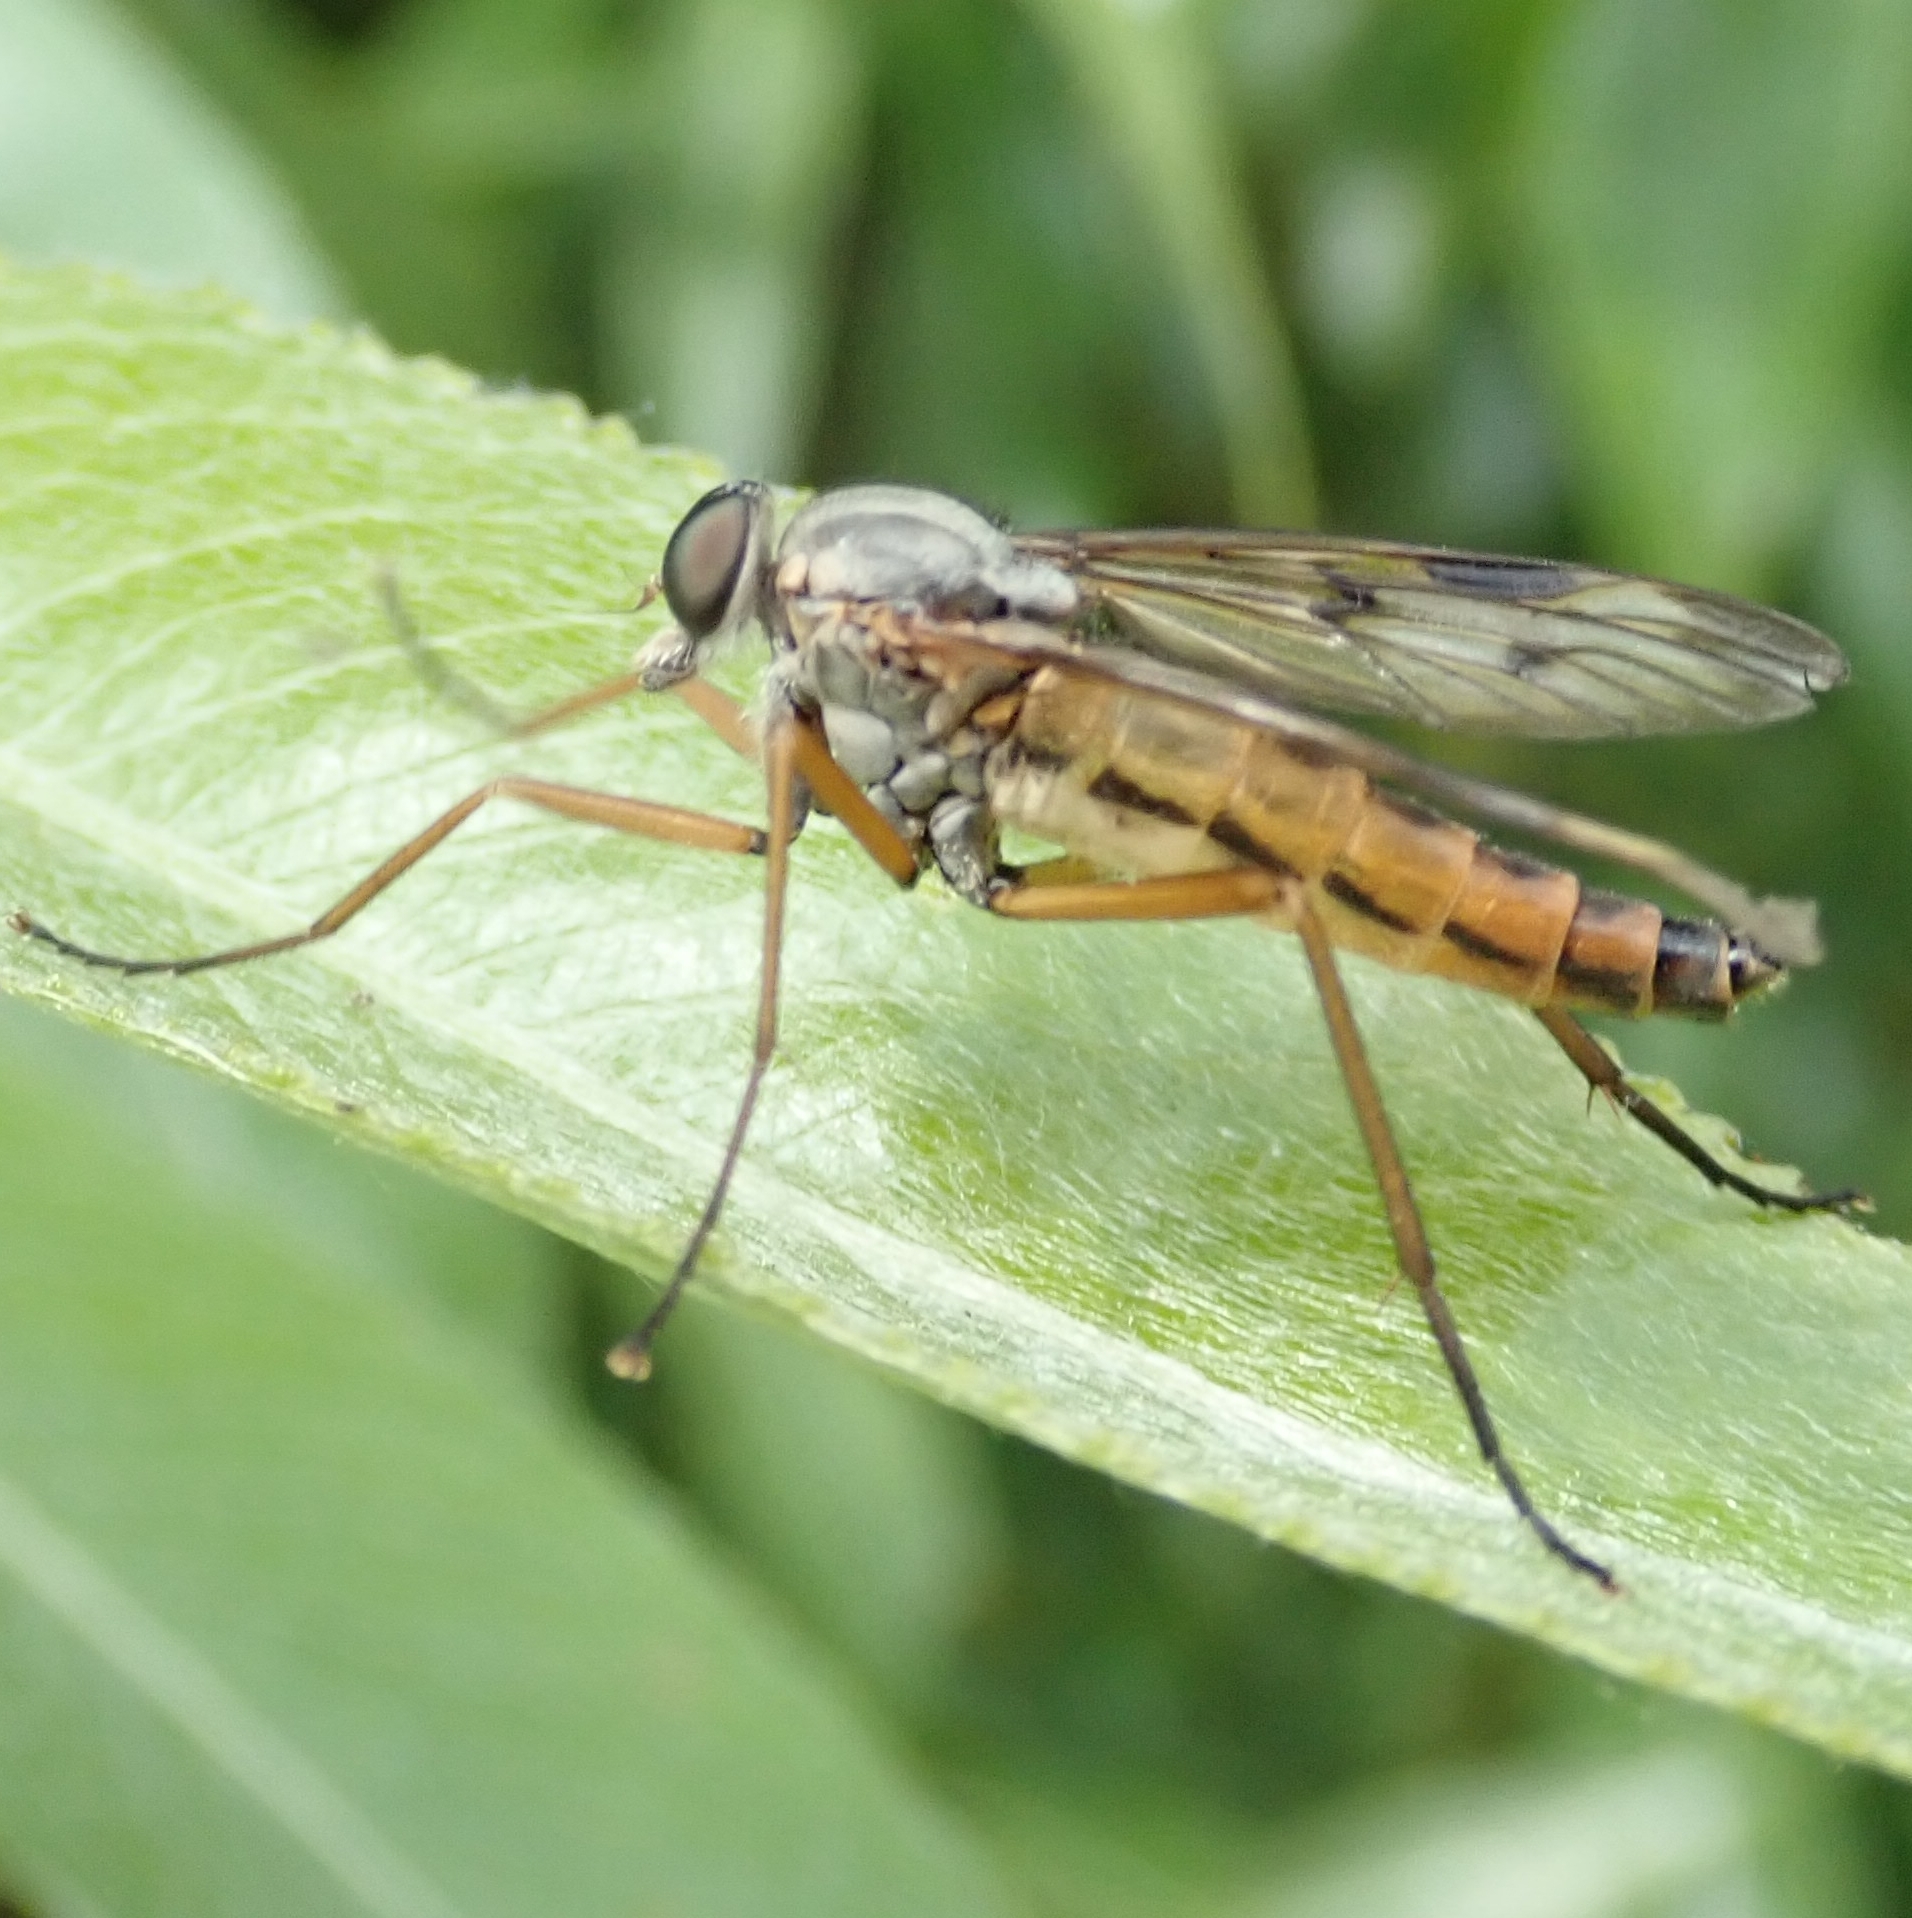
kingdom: Animalia
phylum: Arthropoda
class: Insecta
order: Diptera
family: Rhagionidae
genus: Rhagio
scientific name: Rhagio scolopacea
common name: Downlooker snipefly
